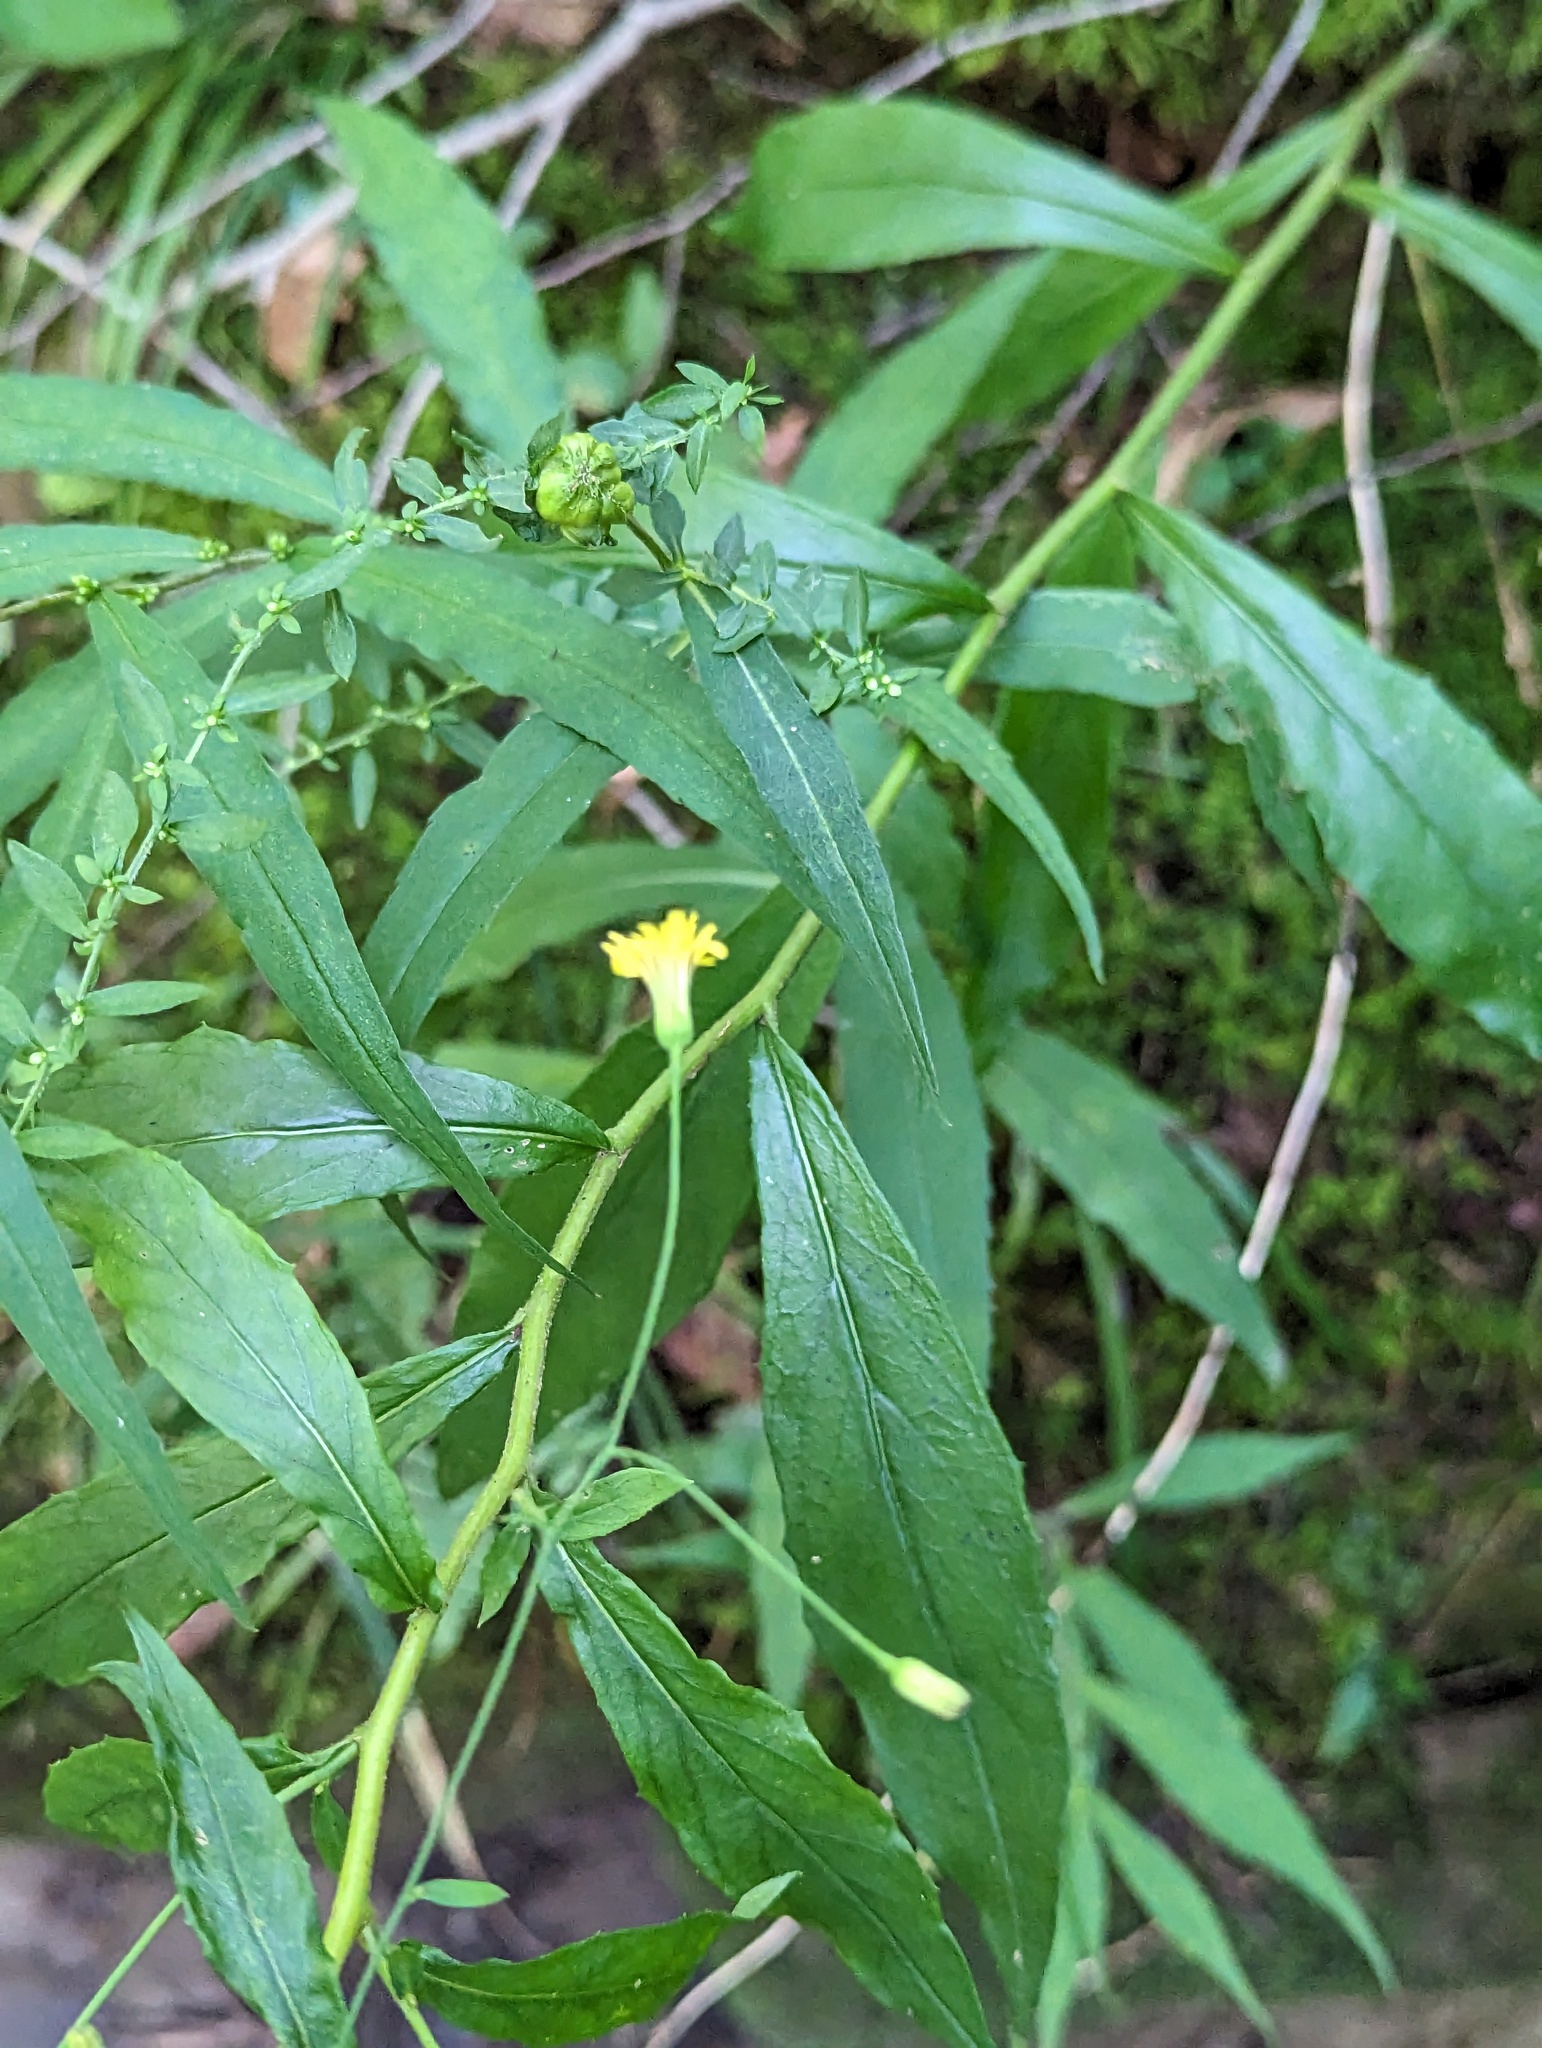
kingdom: Plantae
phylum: Tracheophyta
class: Magnoliopsida
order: Asterales
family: Asteraceae
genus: Hieracium
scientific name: Hieracium paniculatum
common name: Allegheny hawkweed
